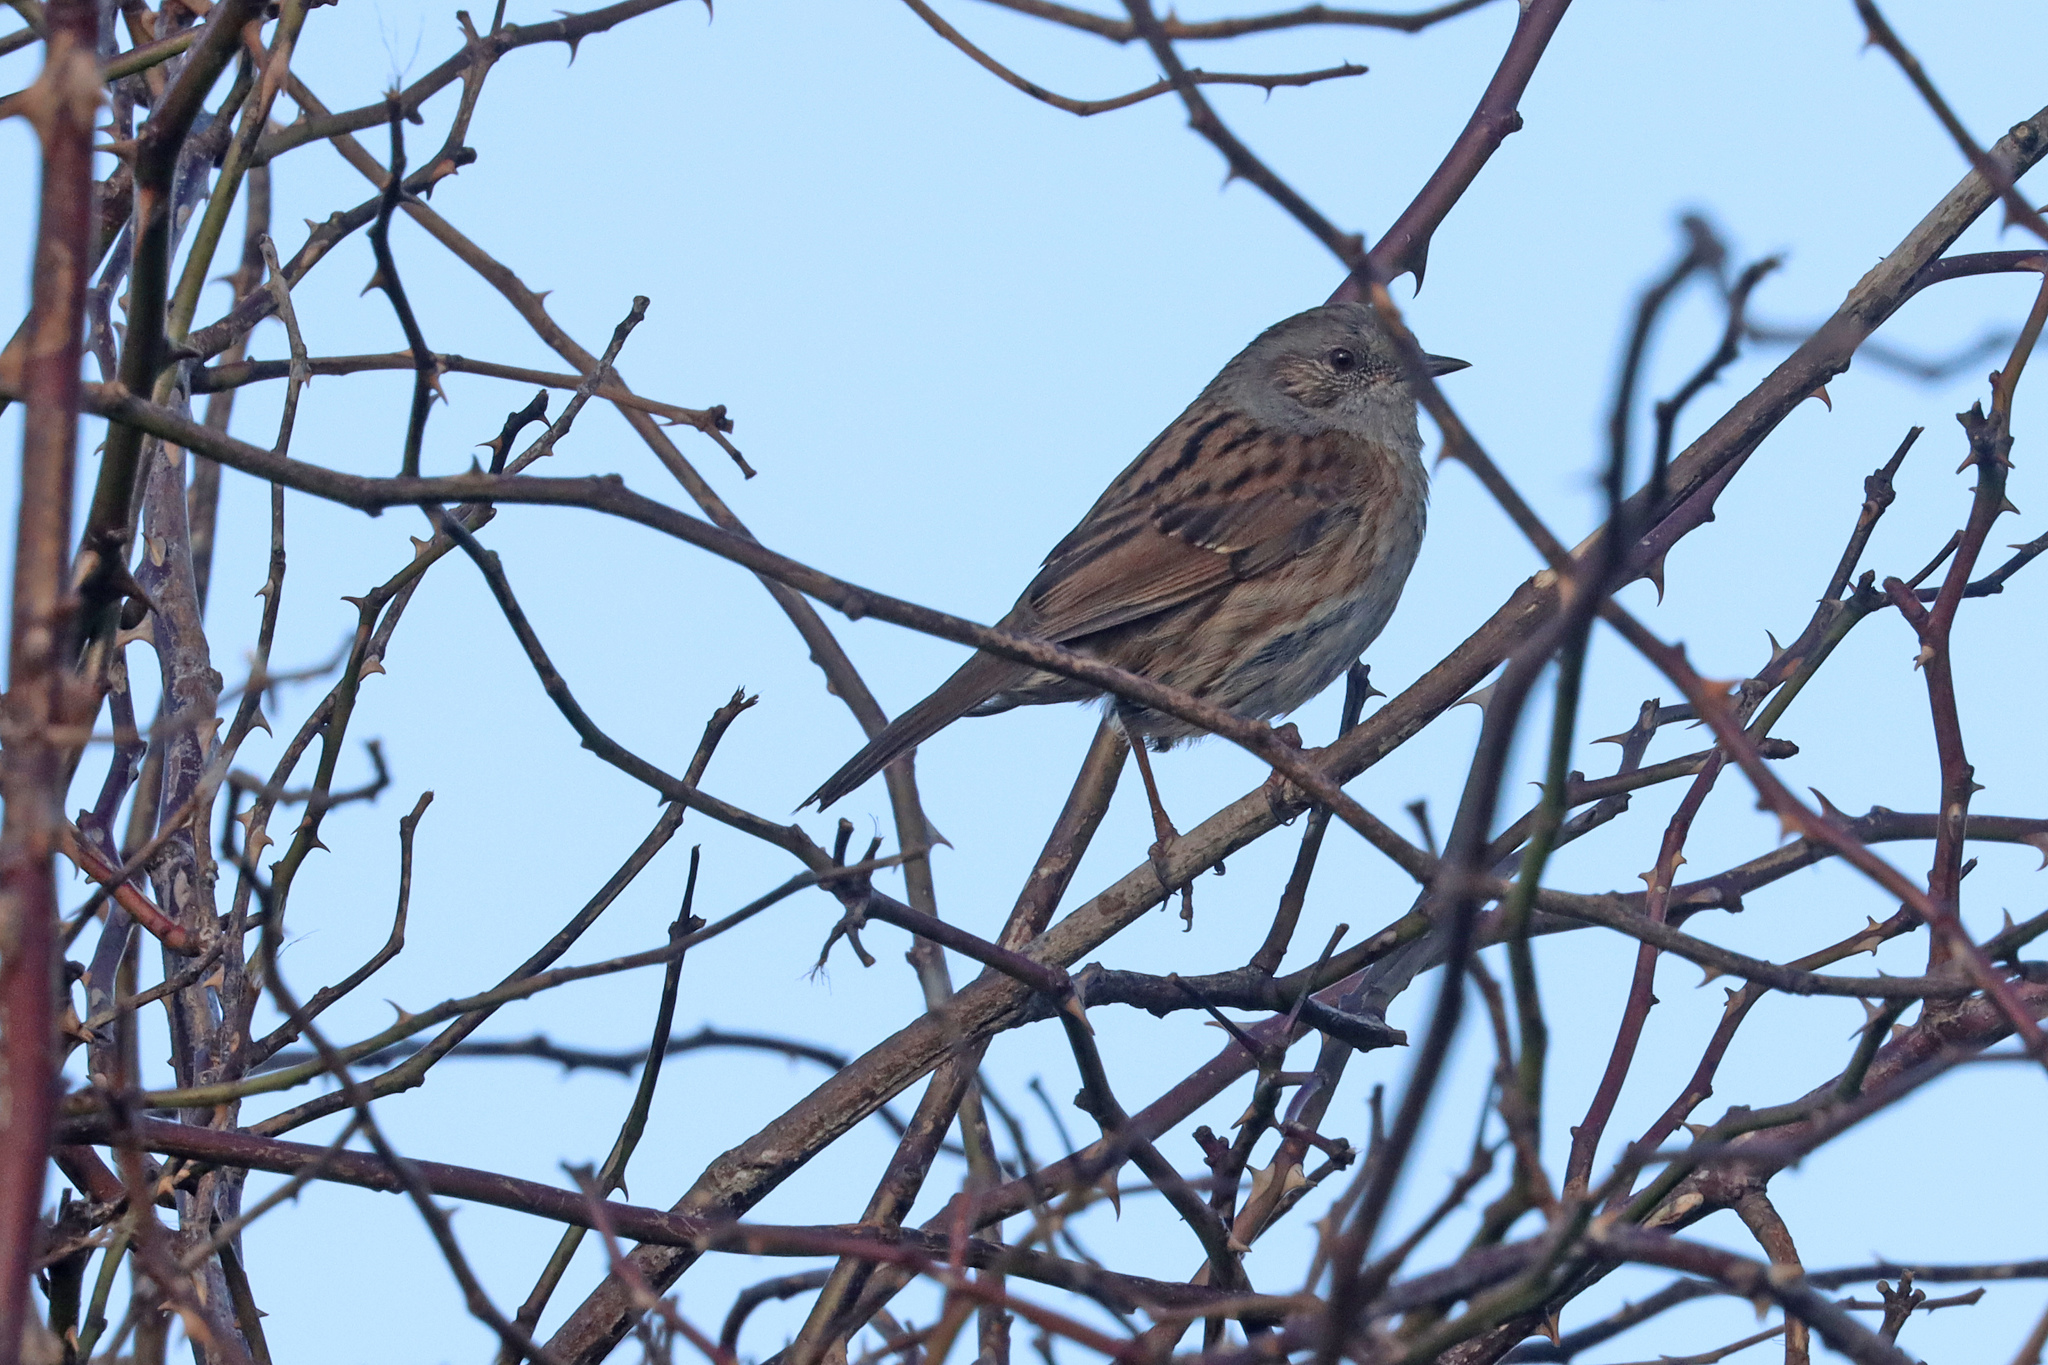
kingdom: Animalia
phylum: Chordata
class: Aves
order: Passeriformes
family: Prunellidae
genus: Prunella
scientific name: Prunella modularis
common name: Dunnock
